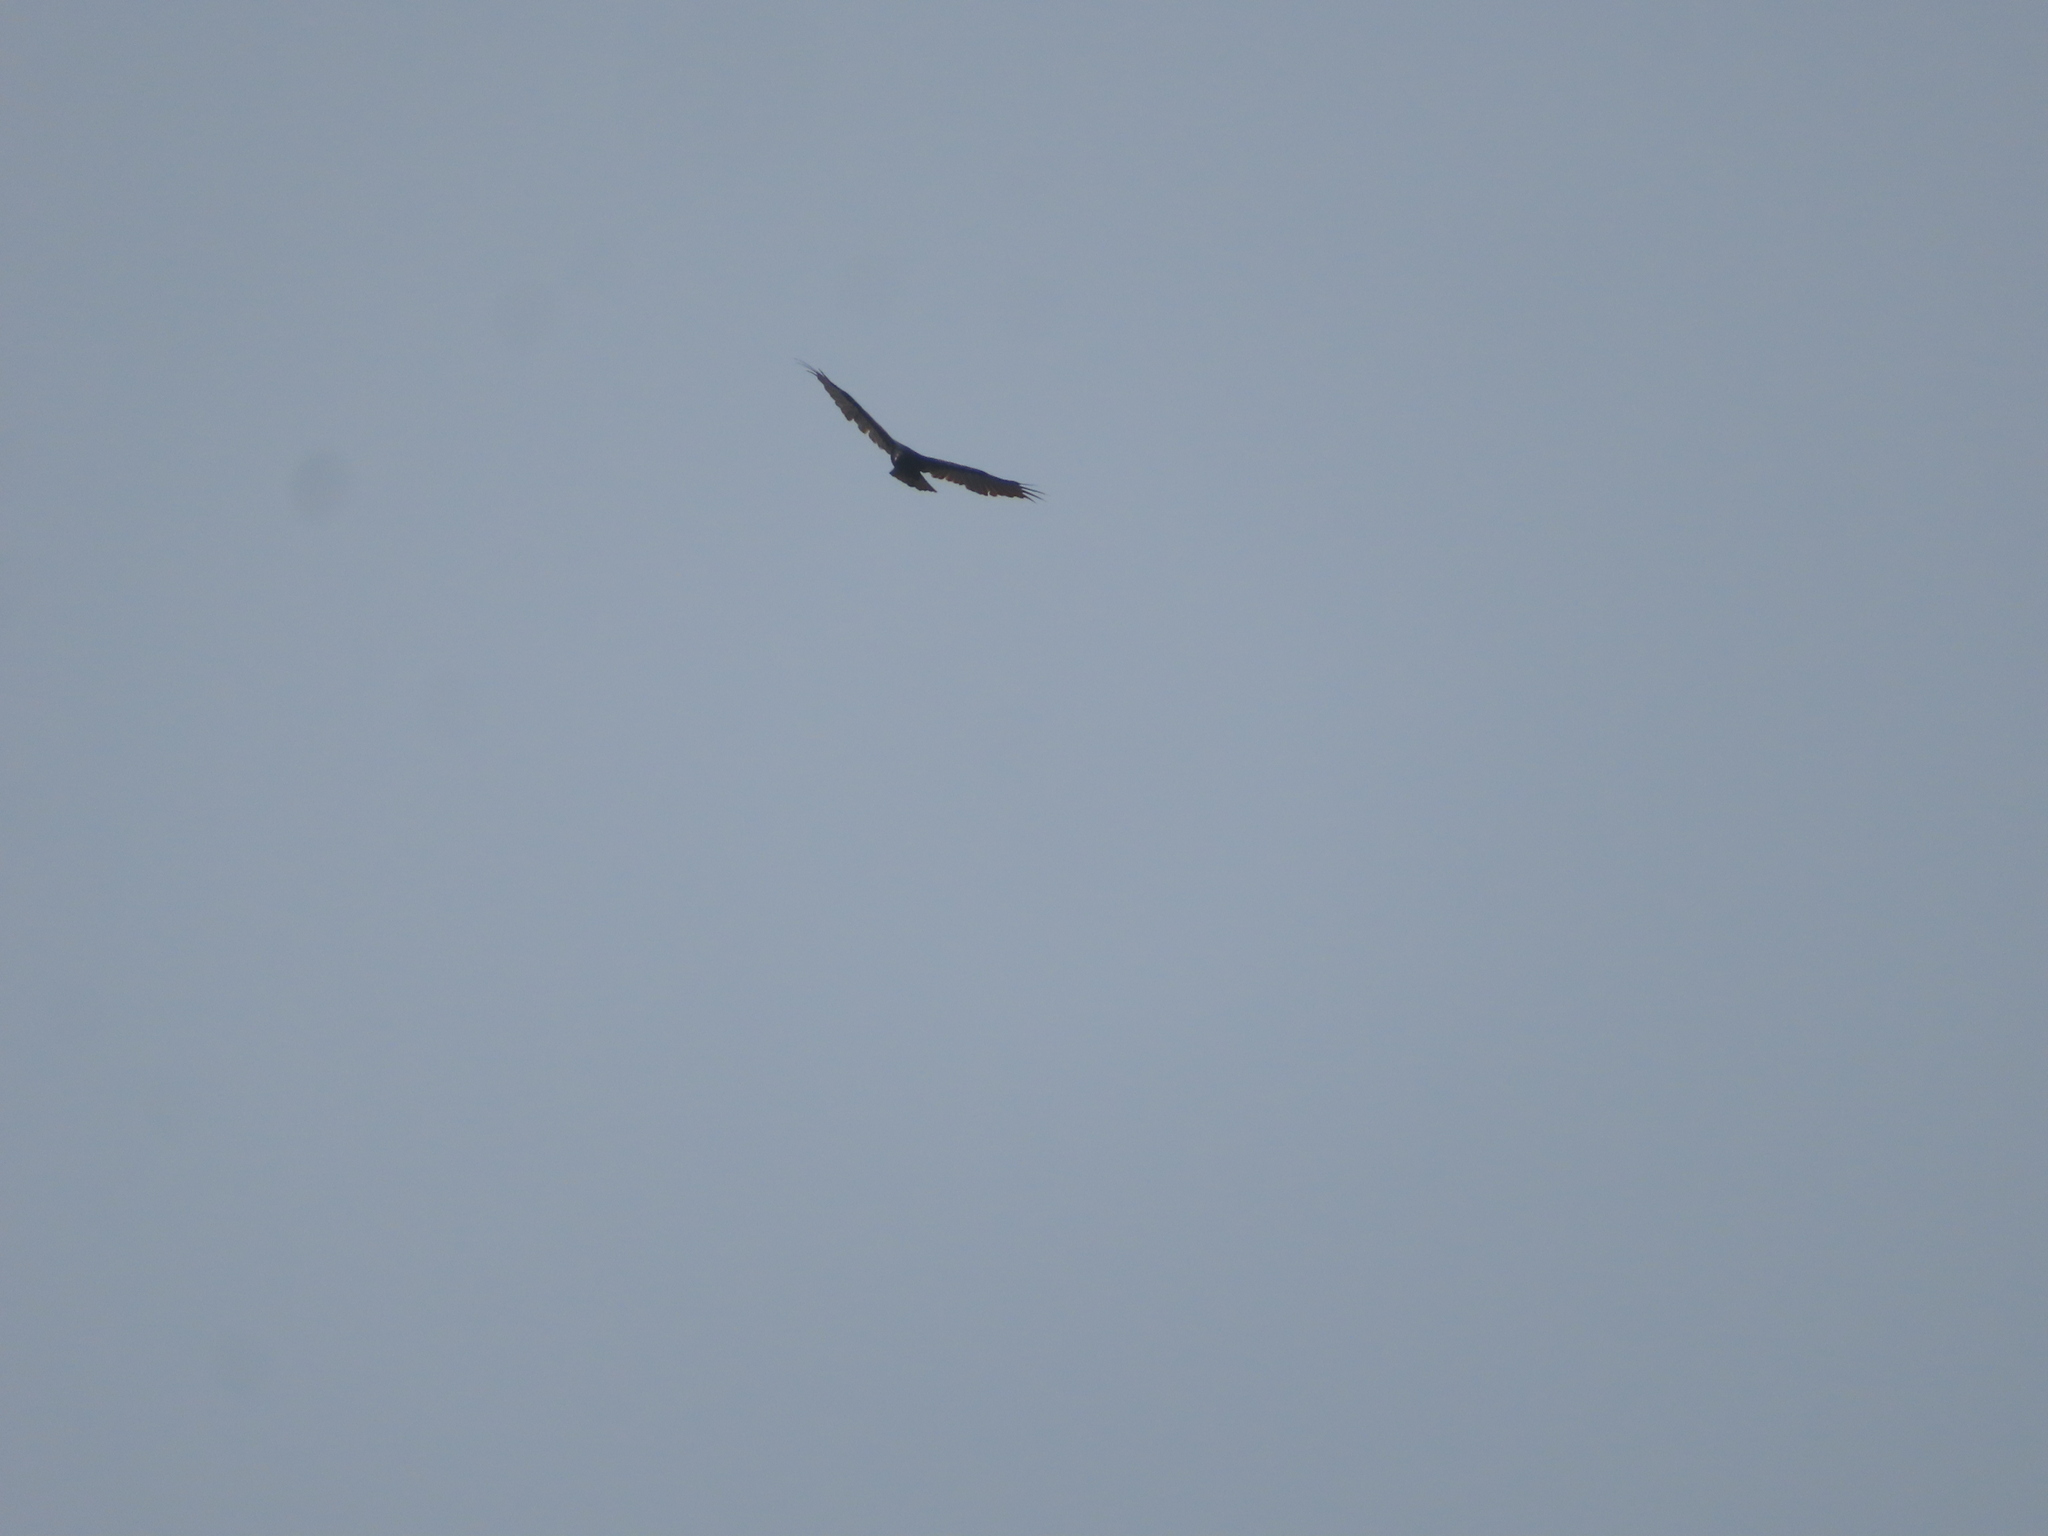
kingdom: Animalia
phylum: Chordata
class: Aves
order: Accipitriformes
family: Cathartidae
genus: Cathartes
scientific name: Cathartes aura
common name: Turkey vulture
